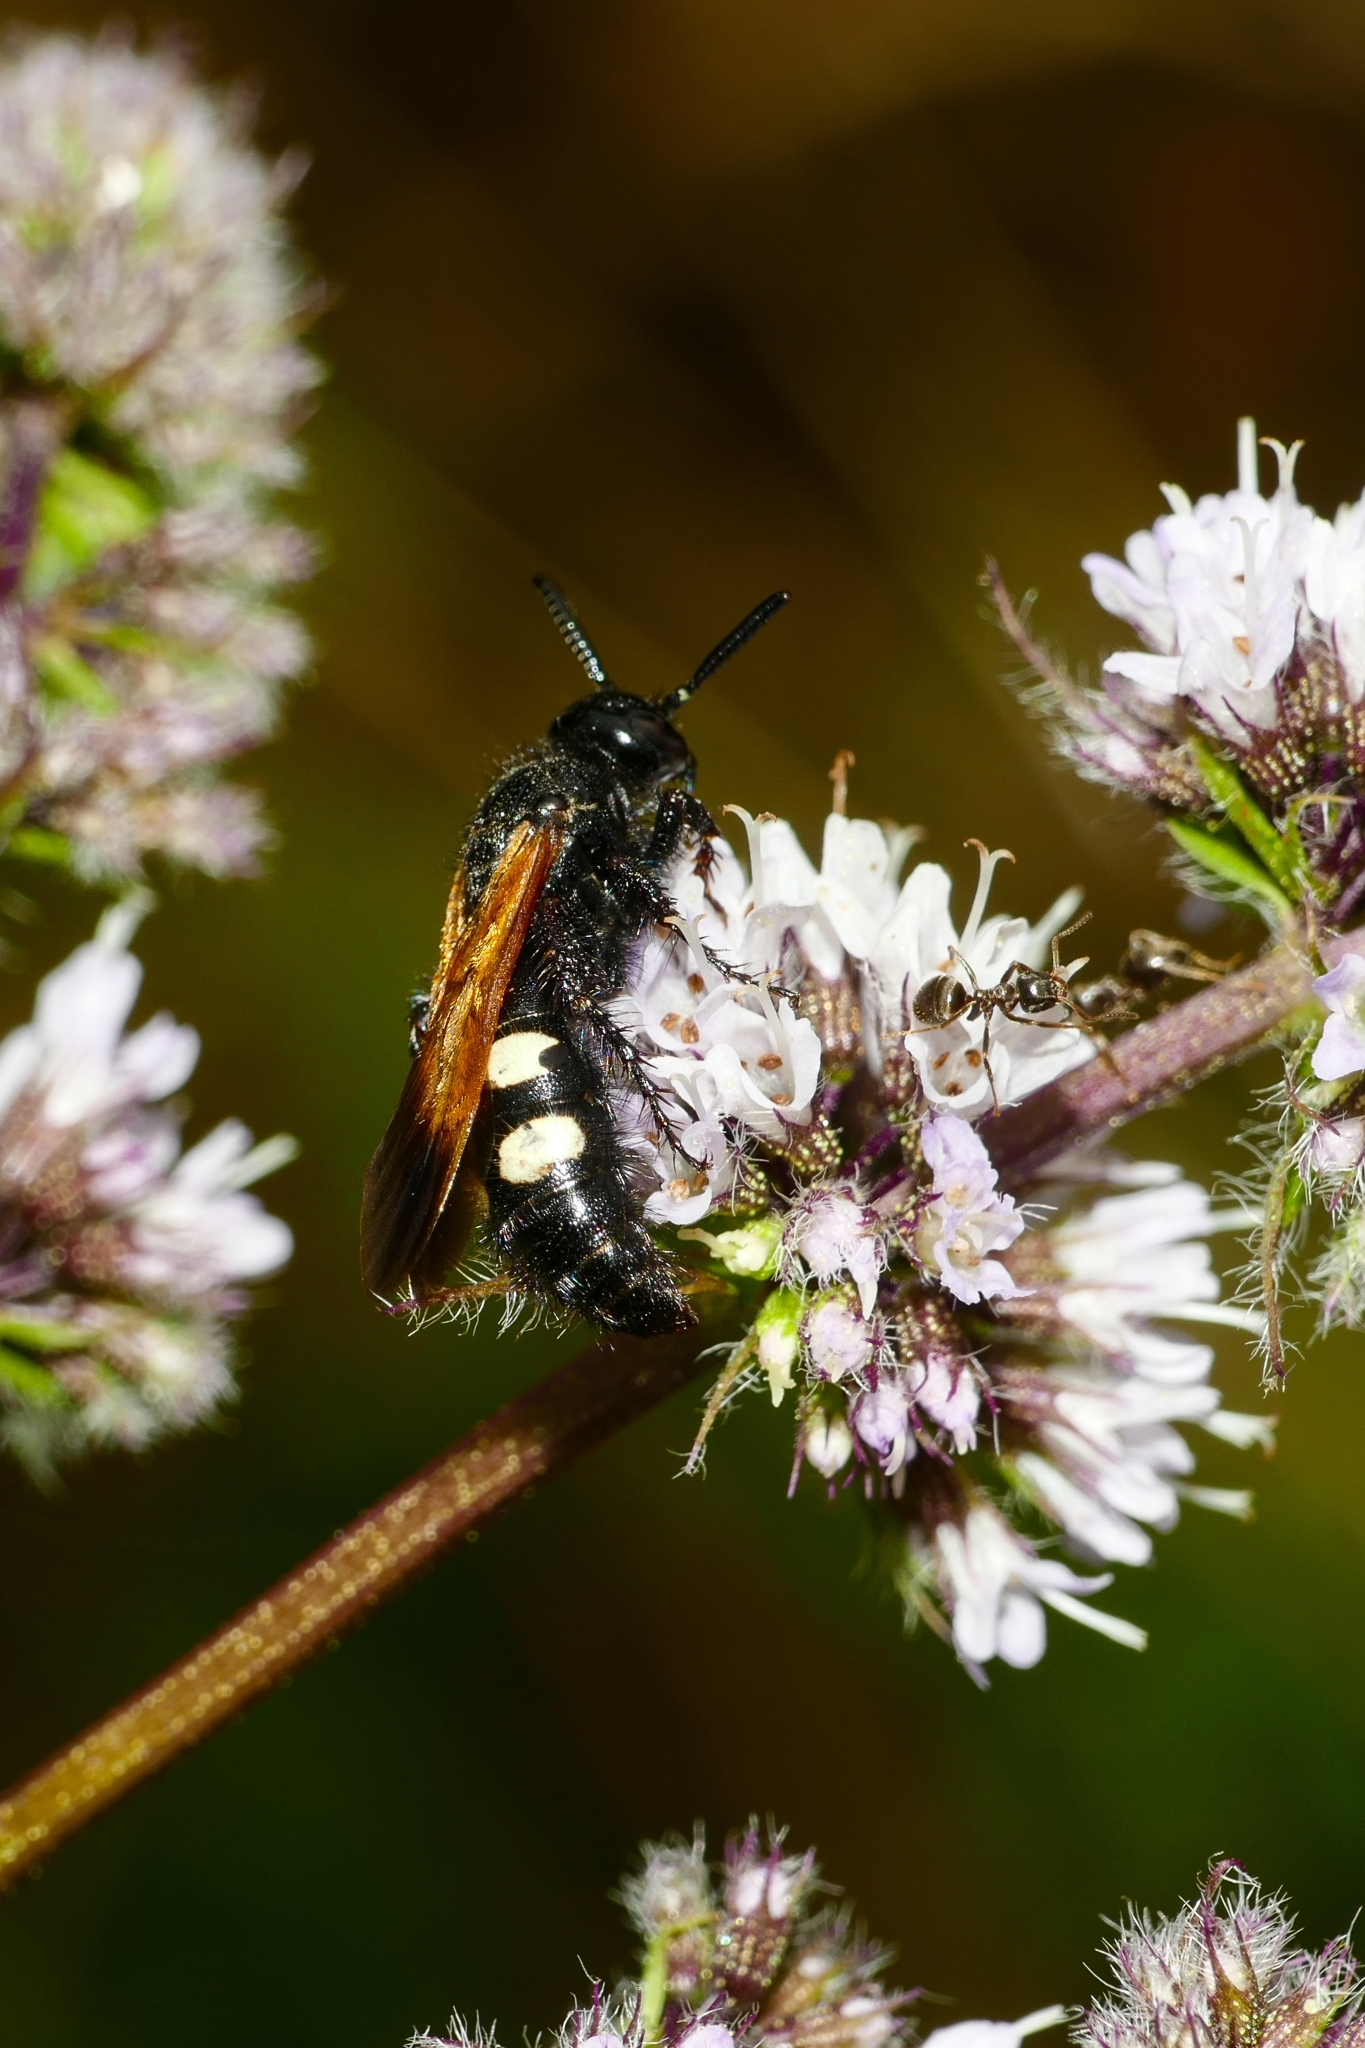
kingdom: Animalia
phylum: Arthropoda
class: Insecta
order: Hymenoptera
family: Vespidae
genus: Vespa
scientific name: Vespa sexmaculata
